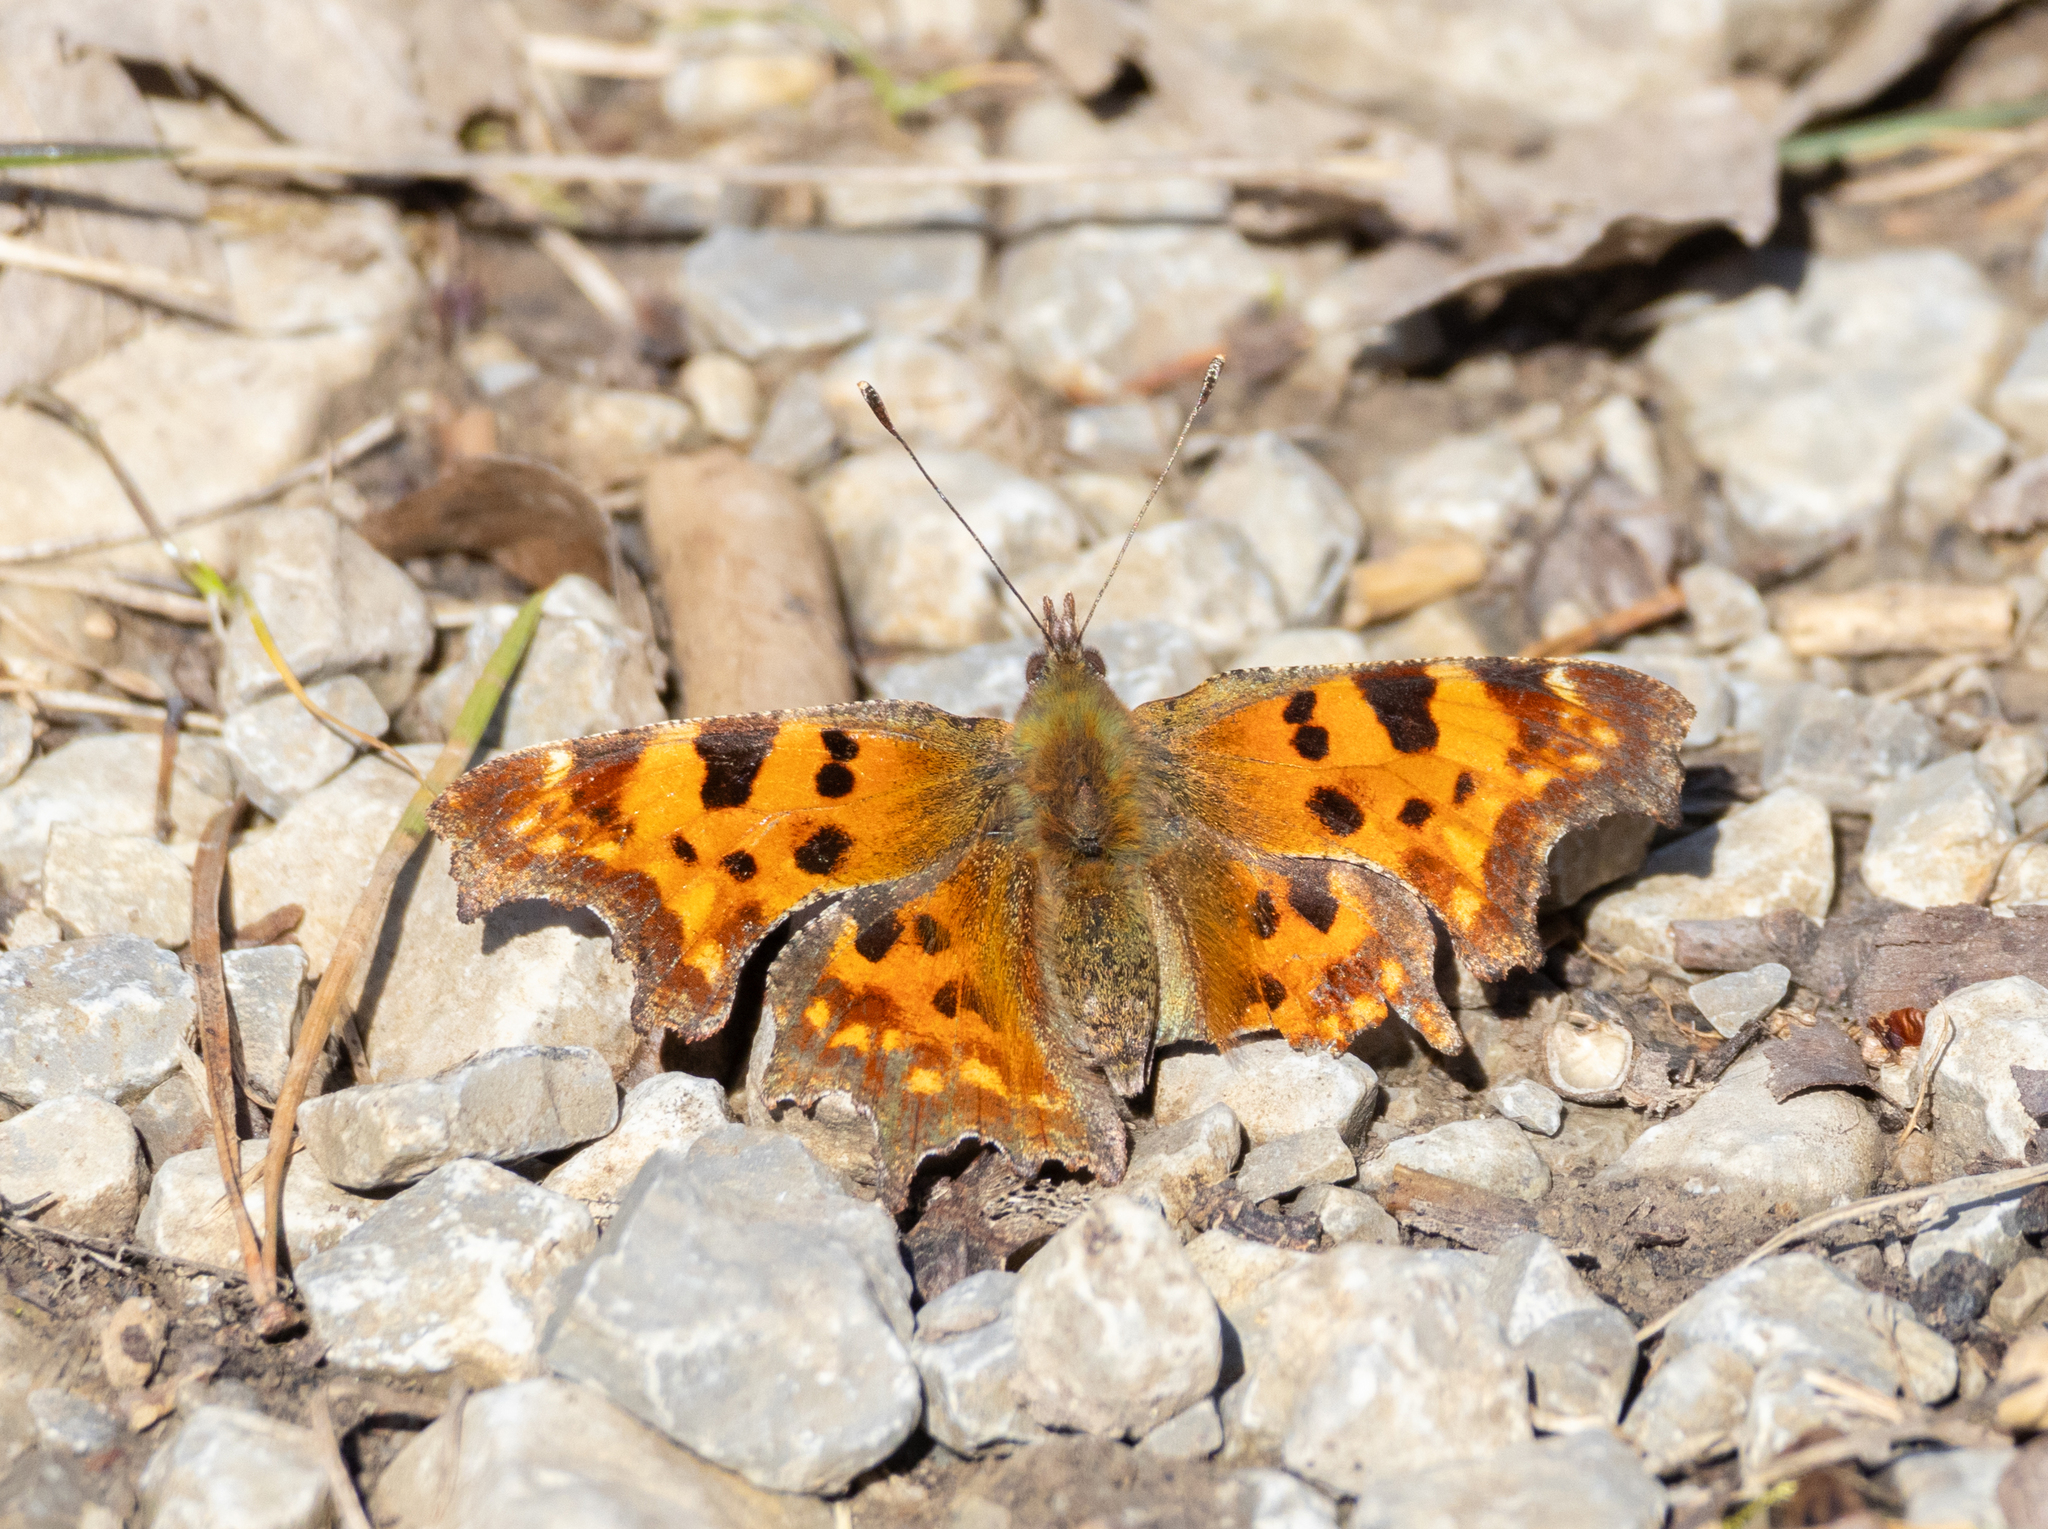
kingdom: Animalia
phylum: Arthropoda
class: Insecta
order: Lepidoptera
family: Nymphalidae
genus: Polygonia
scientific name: Polygonia c-album
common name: Comma
